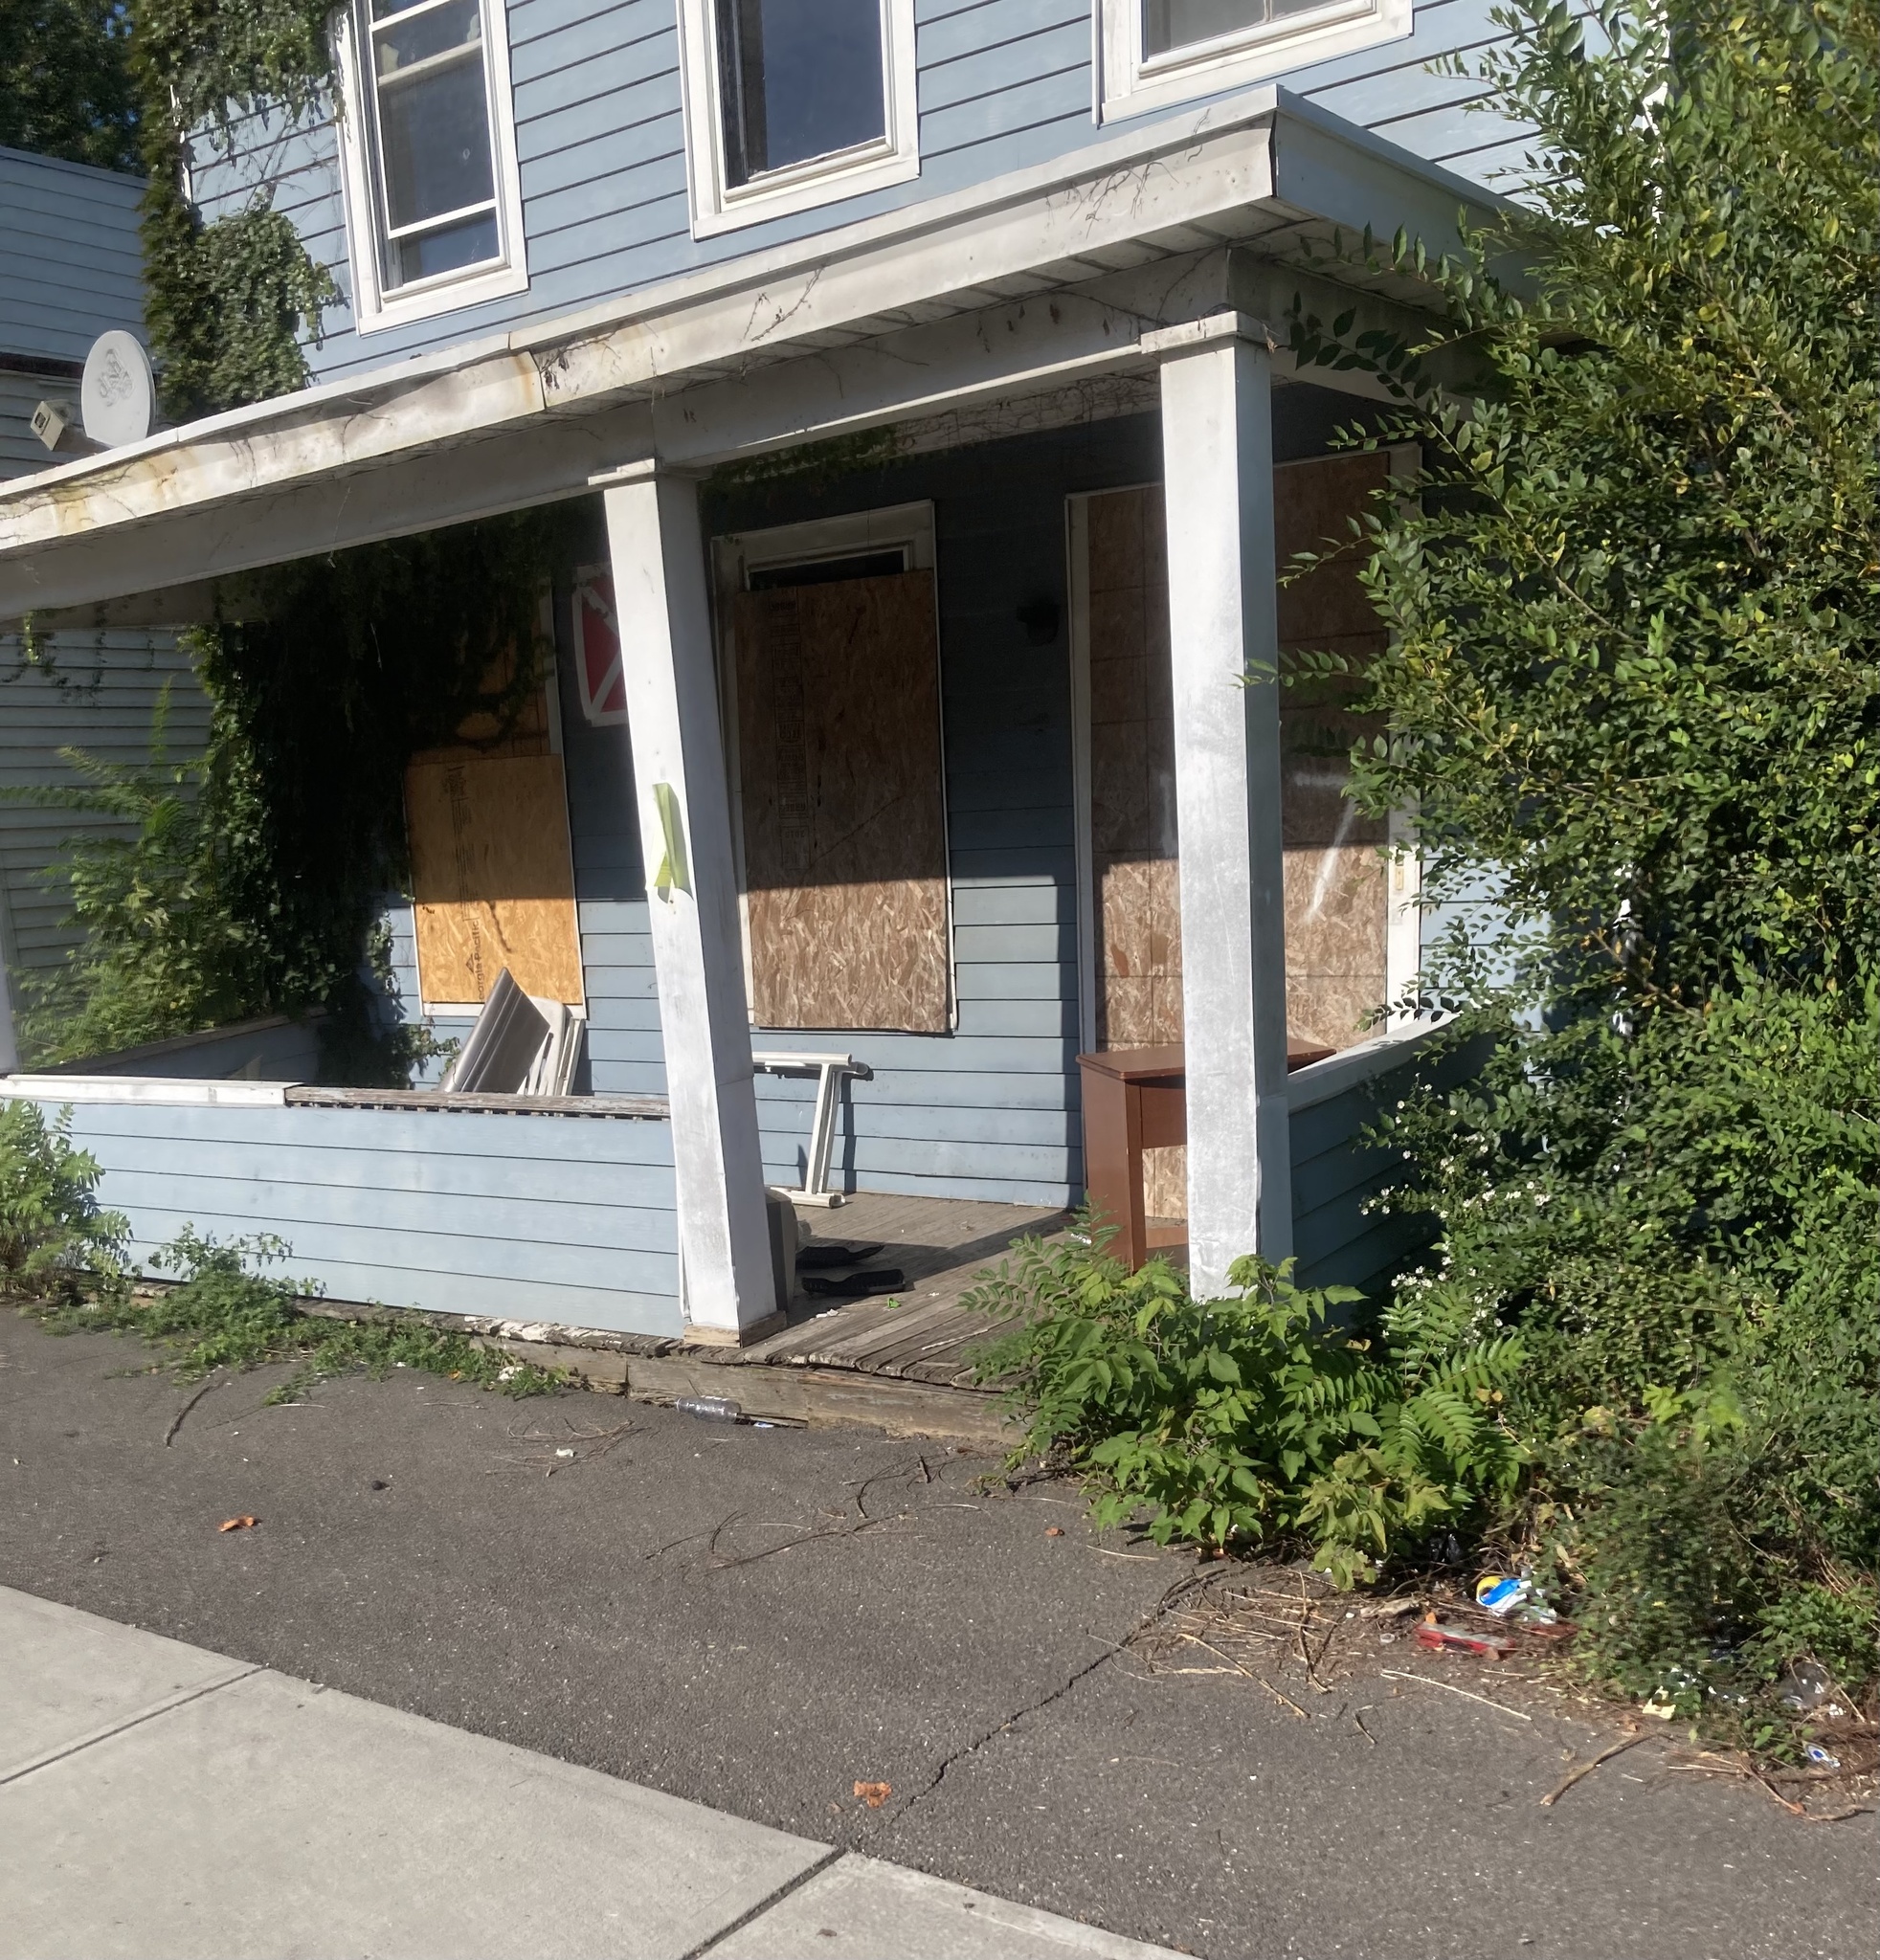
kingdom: Plantae
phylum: Tracheophyta
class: Magnoliopsida
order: Sapindales
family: Simaroubaceae
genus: Ailanthus
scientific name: Ailanthus altissima
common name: Tree-of-heaven
